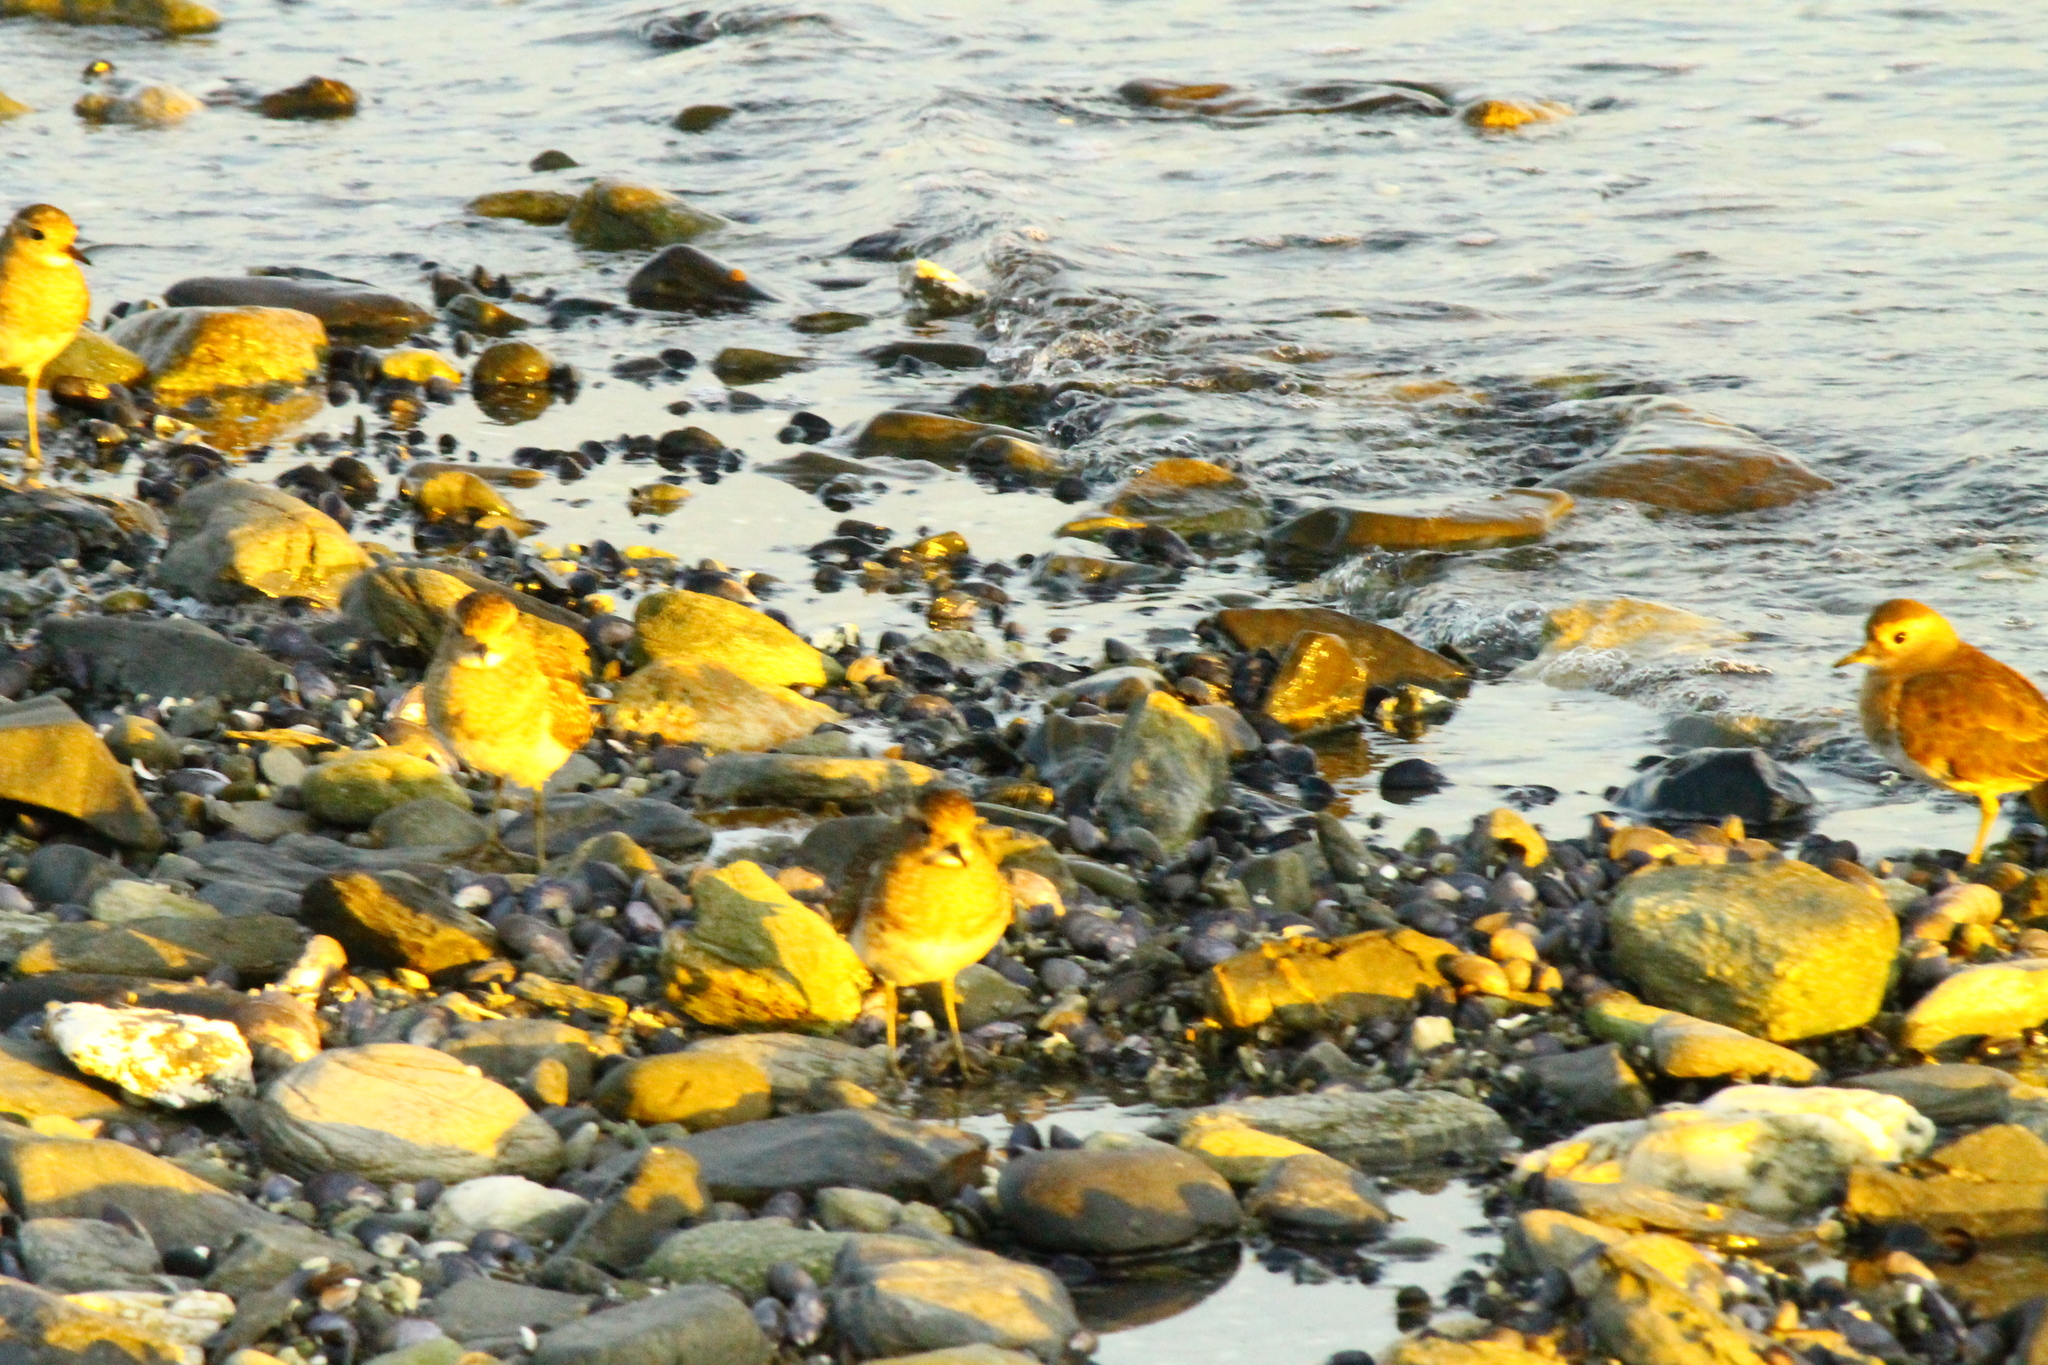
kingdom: Animalia
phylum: Chordata
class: Aves
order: Charadriiformes
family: Charadriidae
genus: Charadrius
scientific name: Charadrius modestus
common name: Rufous-chested plover
